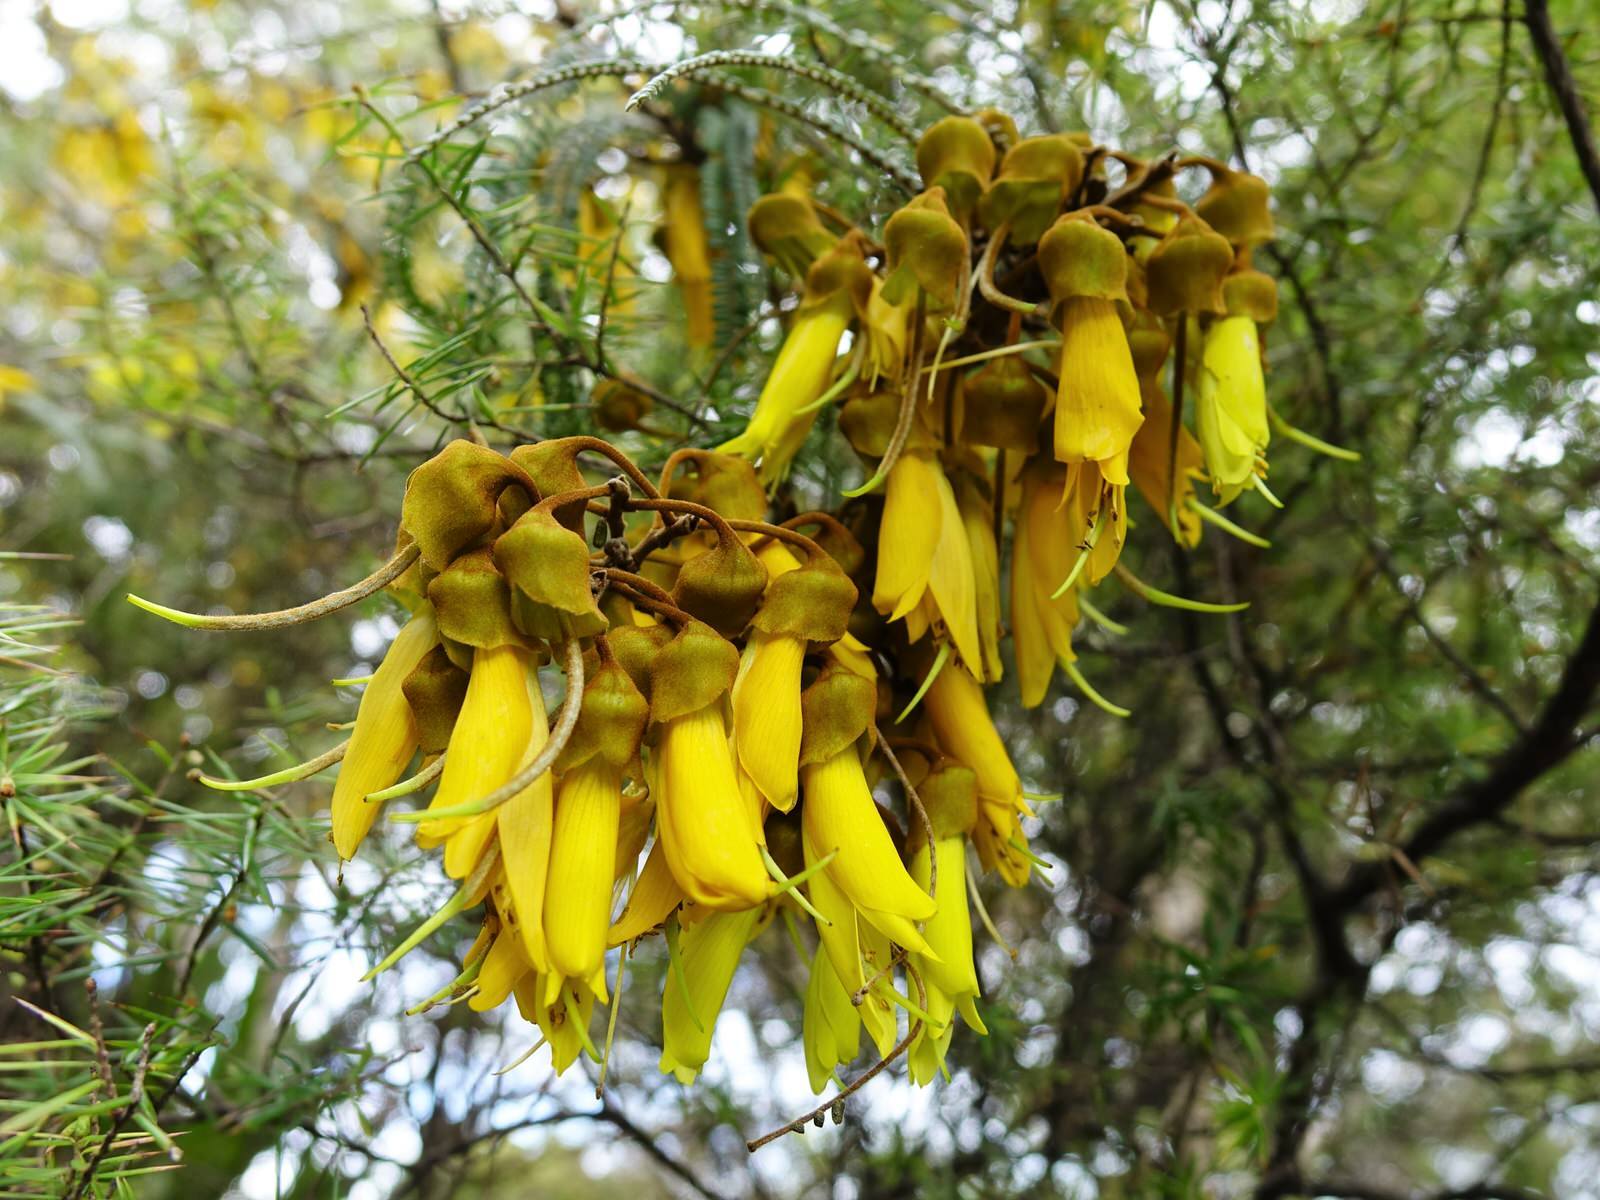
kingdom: Plantae
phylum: Tracheophyta
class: Magnoliopsida
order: Fabales
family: Fabaceae
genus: Sophora
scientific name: Sophora fulvida
